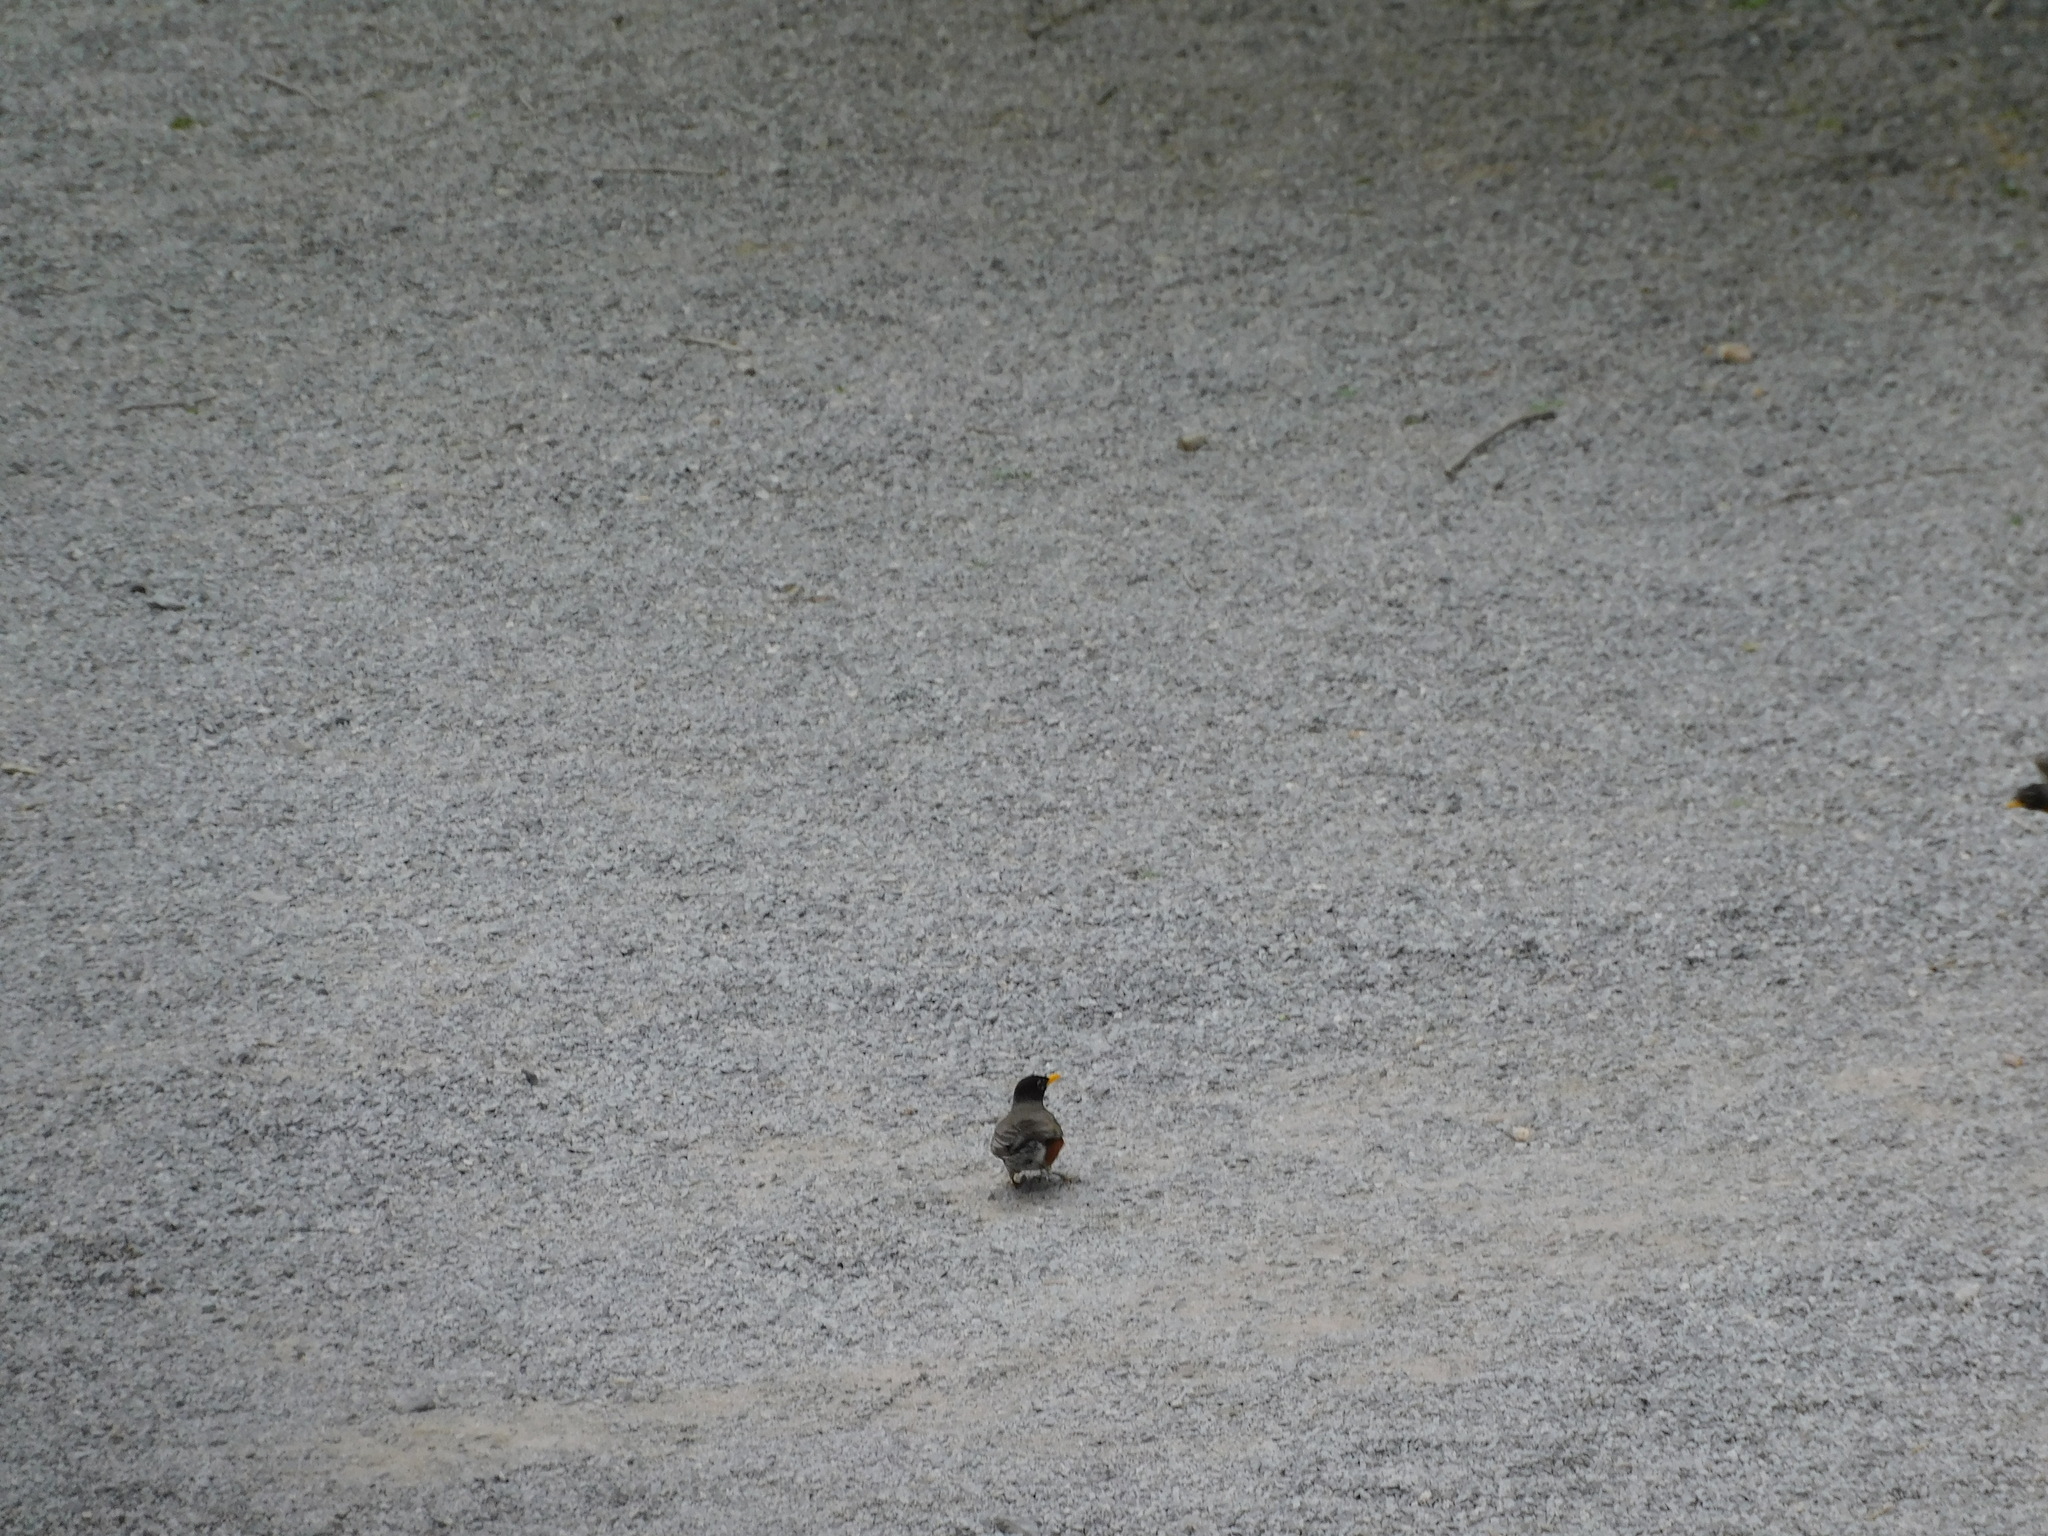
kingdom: Animalia
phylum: Chordata
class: Aves
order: Passeriformes
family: Turdidae
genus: Turdus
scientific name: Turdus migratorius
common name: American robin
